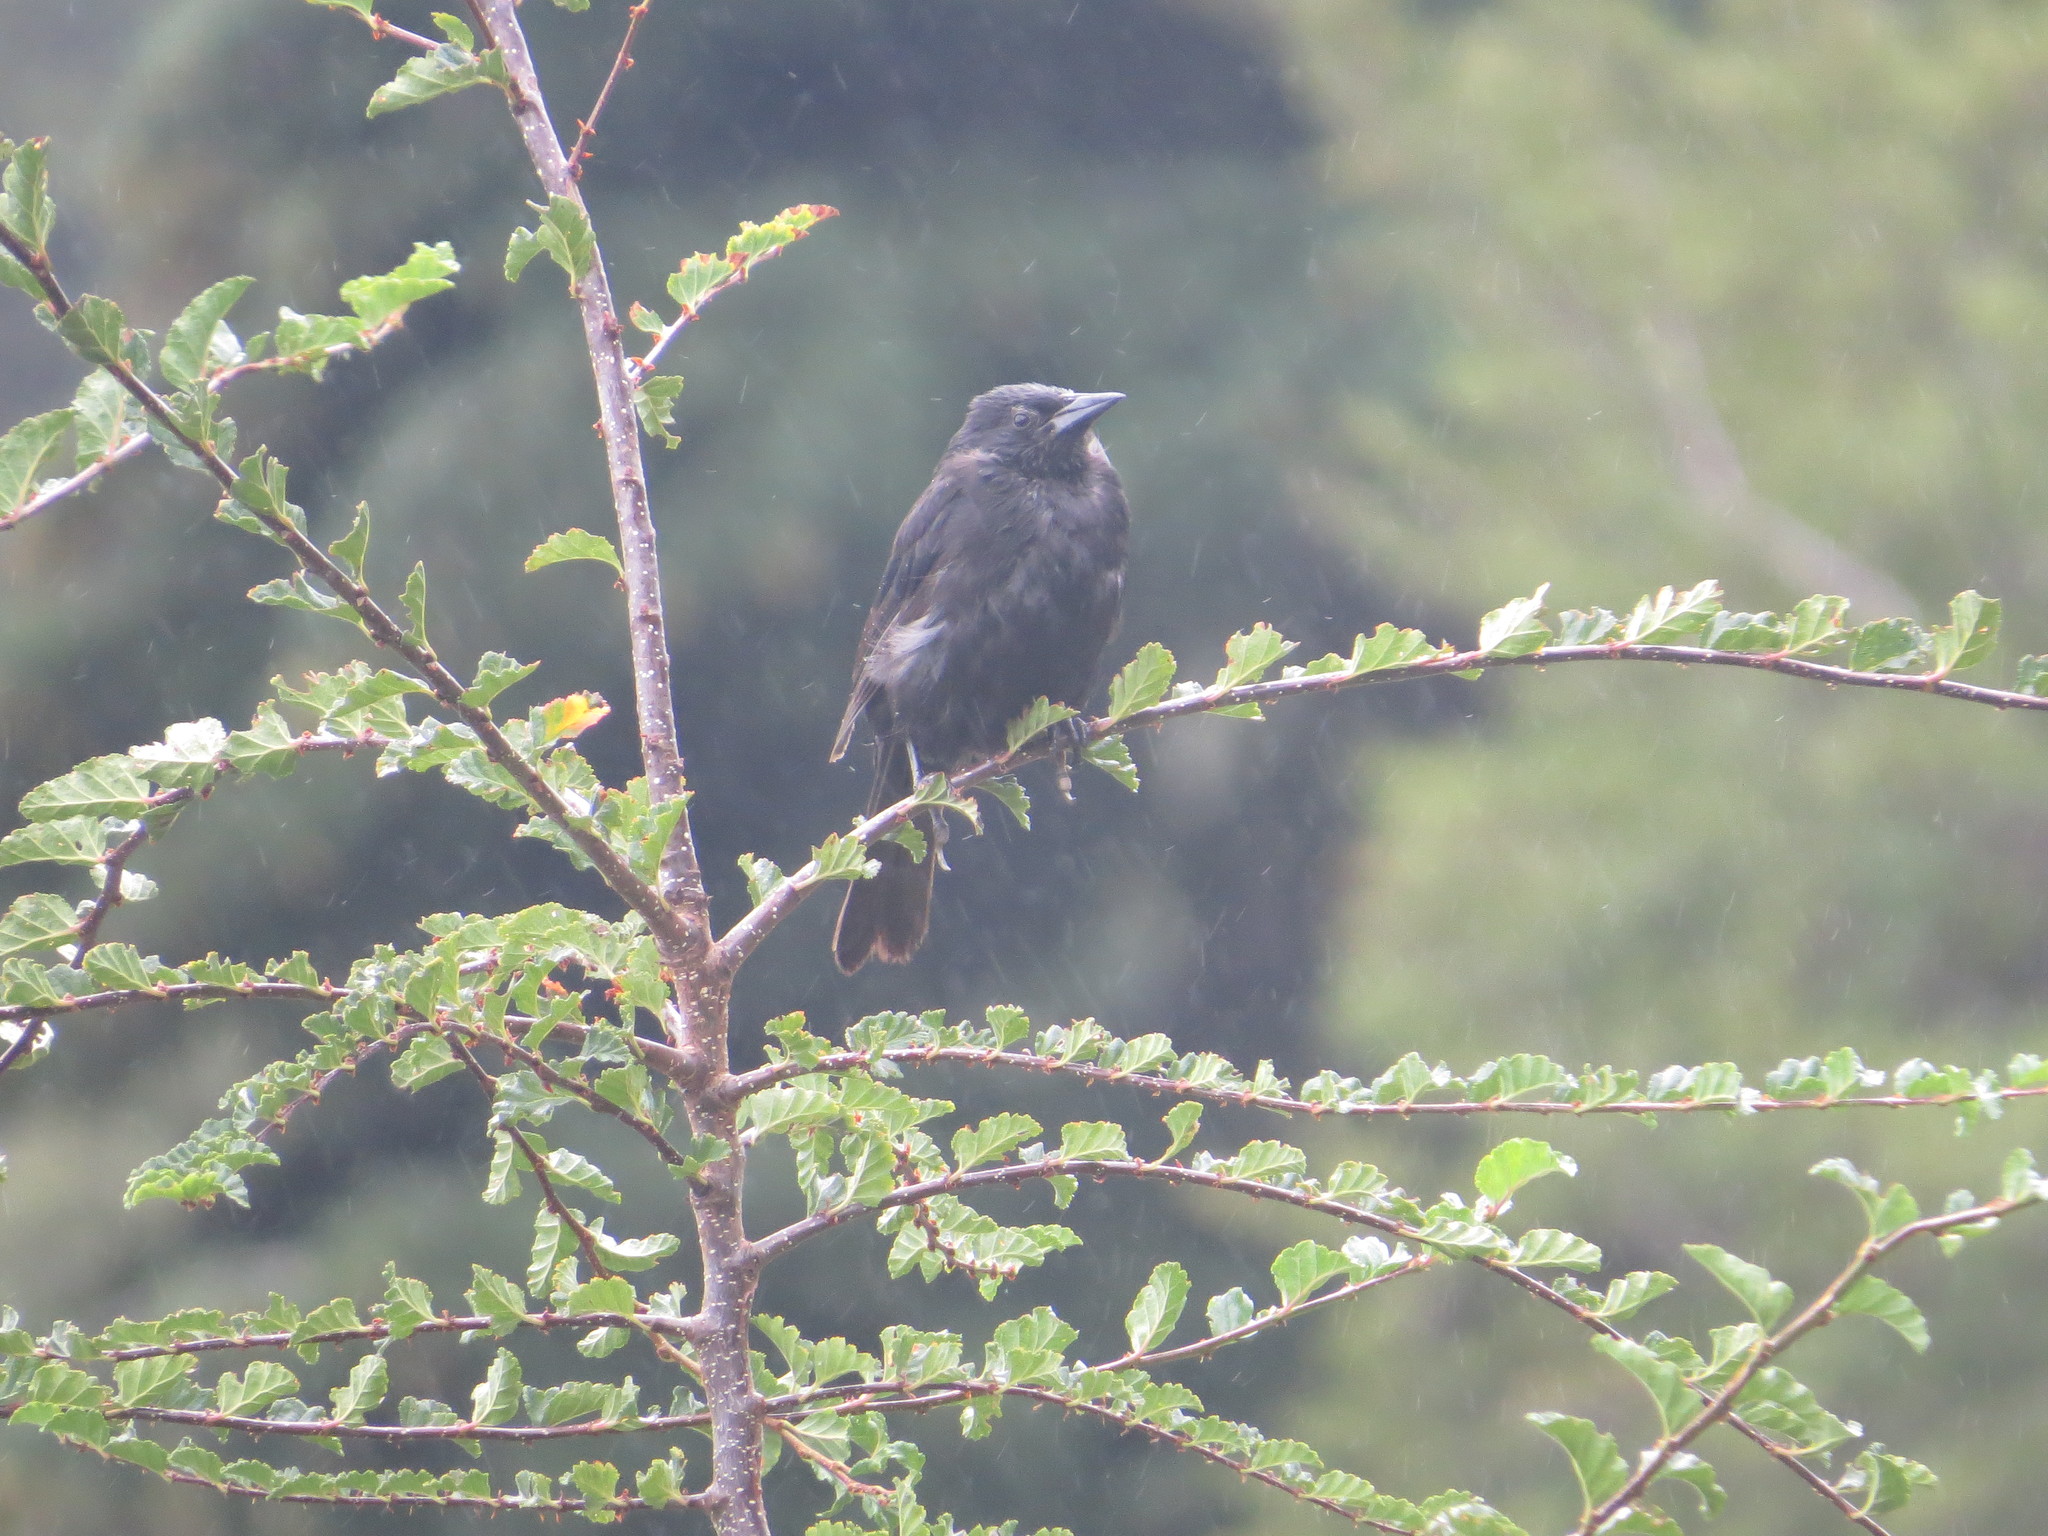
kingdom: Animalia
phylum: Chordata
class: Aves
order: Passeriformes
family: Icteridae
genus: Curaeus
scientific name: Curaeus curaeus
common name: Austral blackbird
